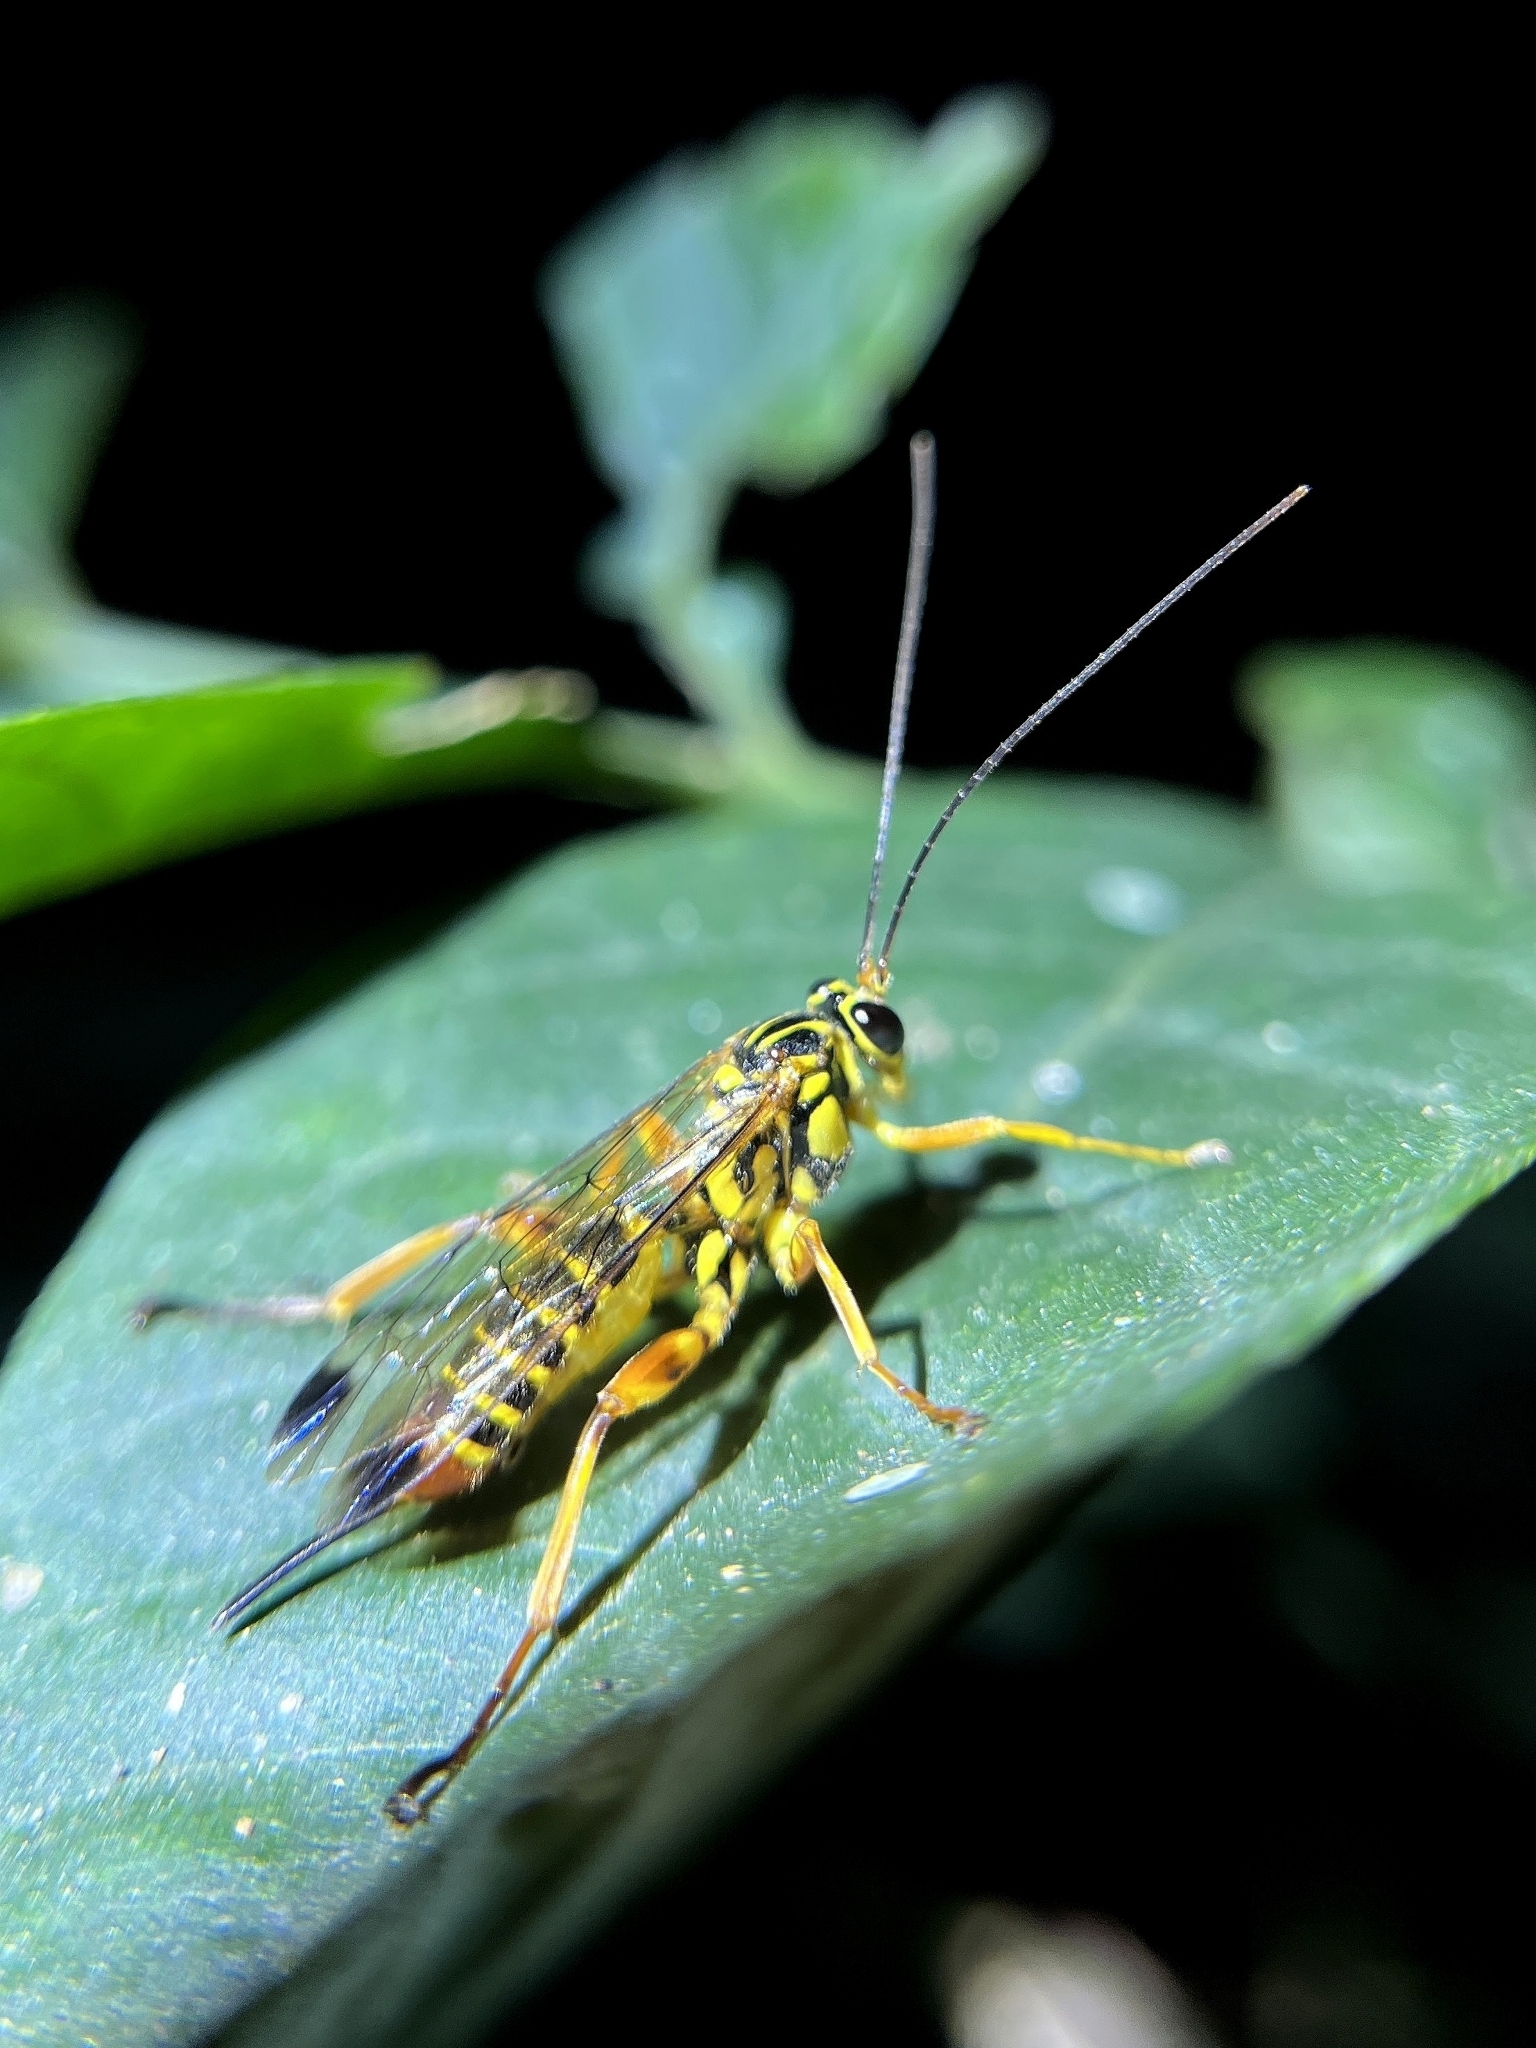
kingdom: Animalia
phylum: Arthropoda
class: Insecta
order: Hymenoptera
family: Ichneumonidae
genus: Echthromorpha
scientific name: Echthromorpha agrestoria
